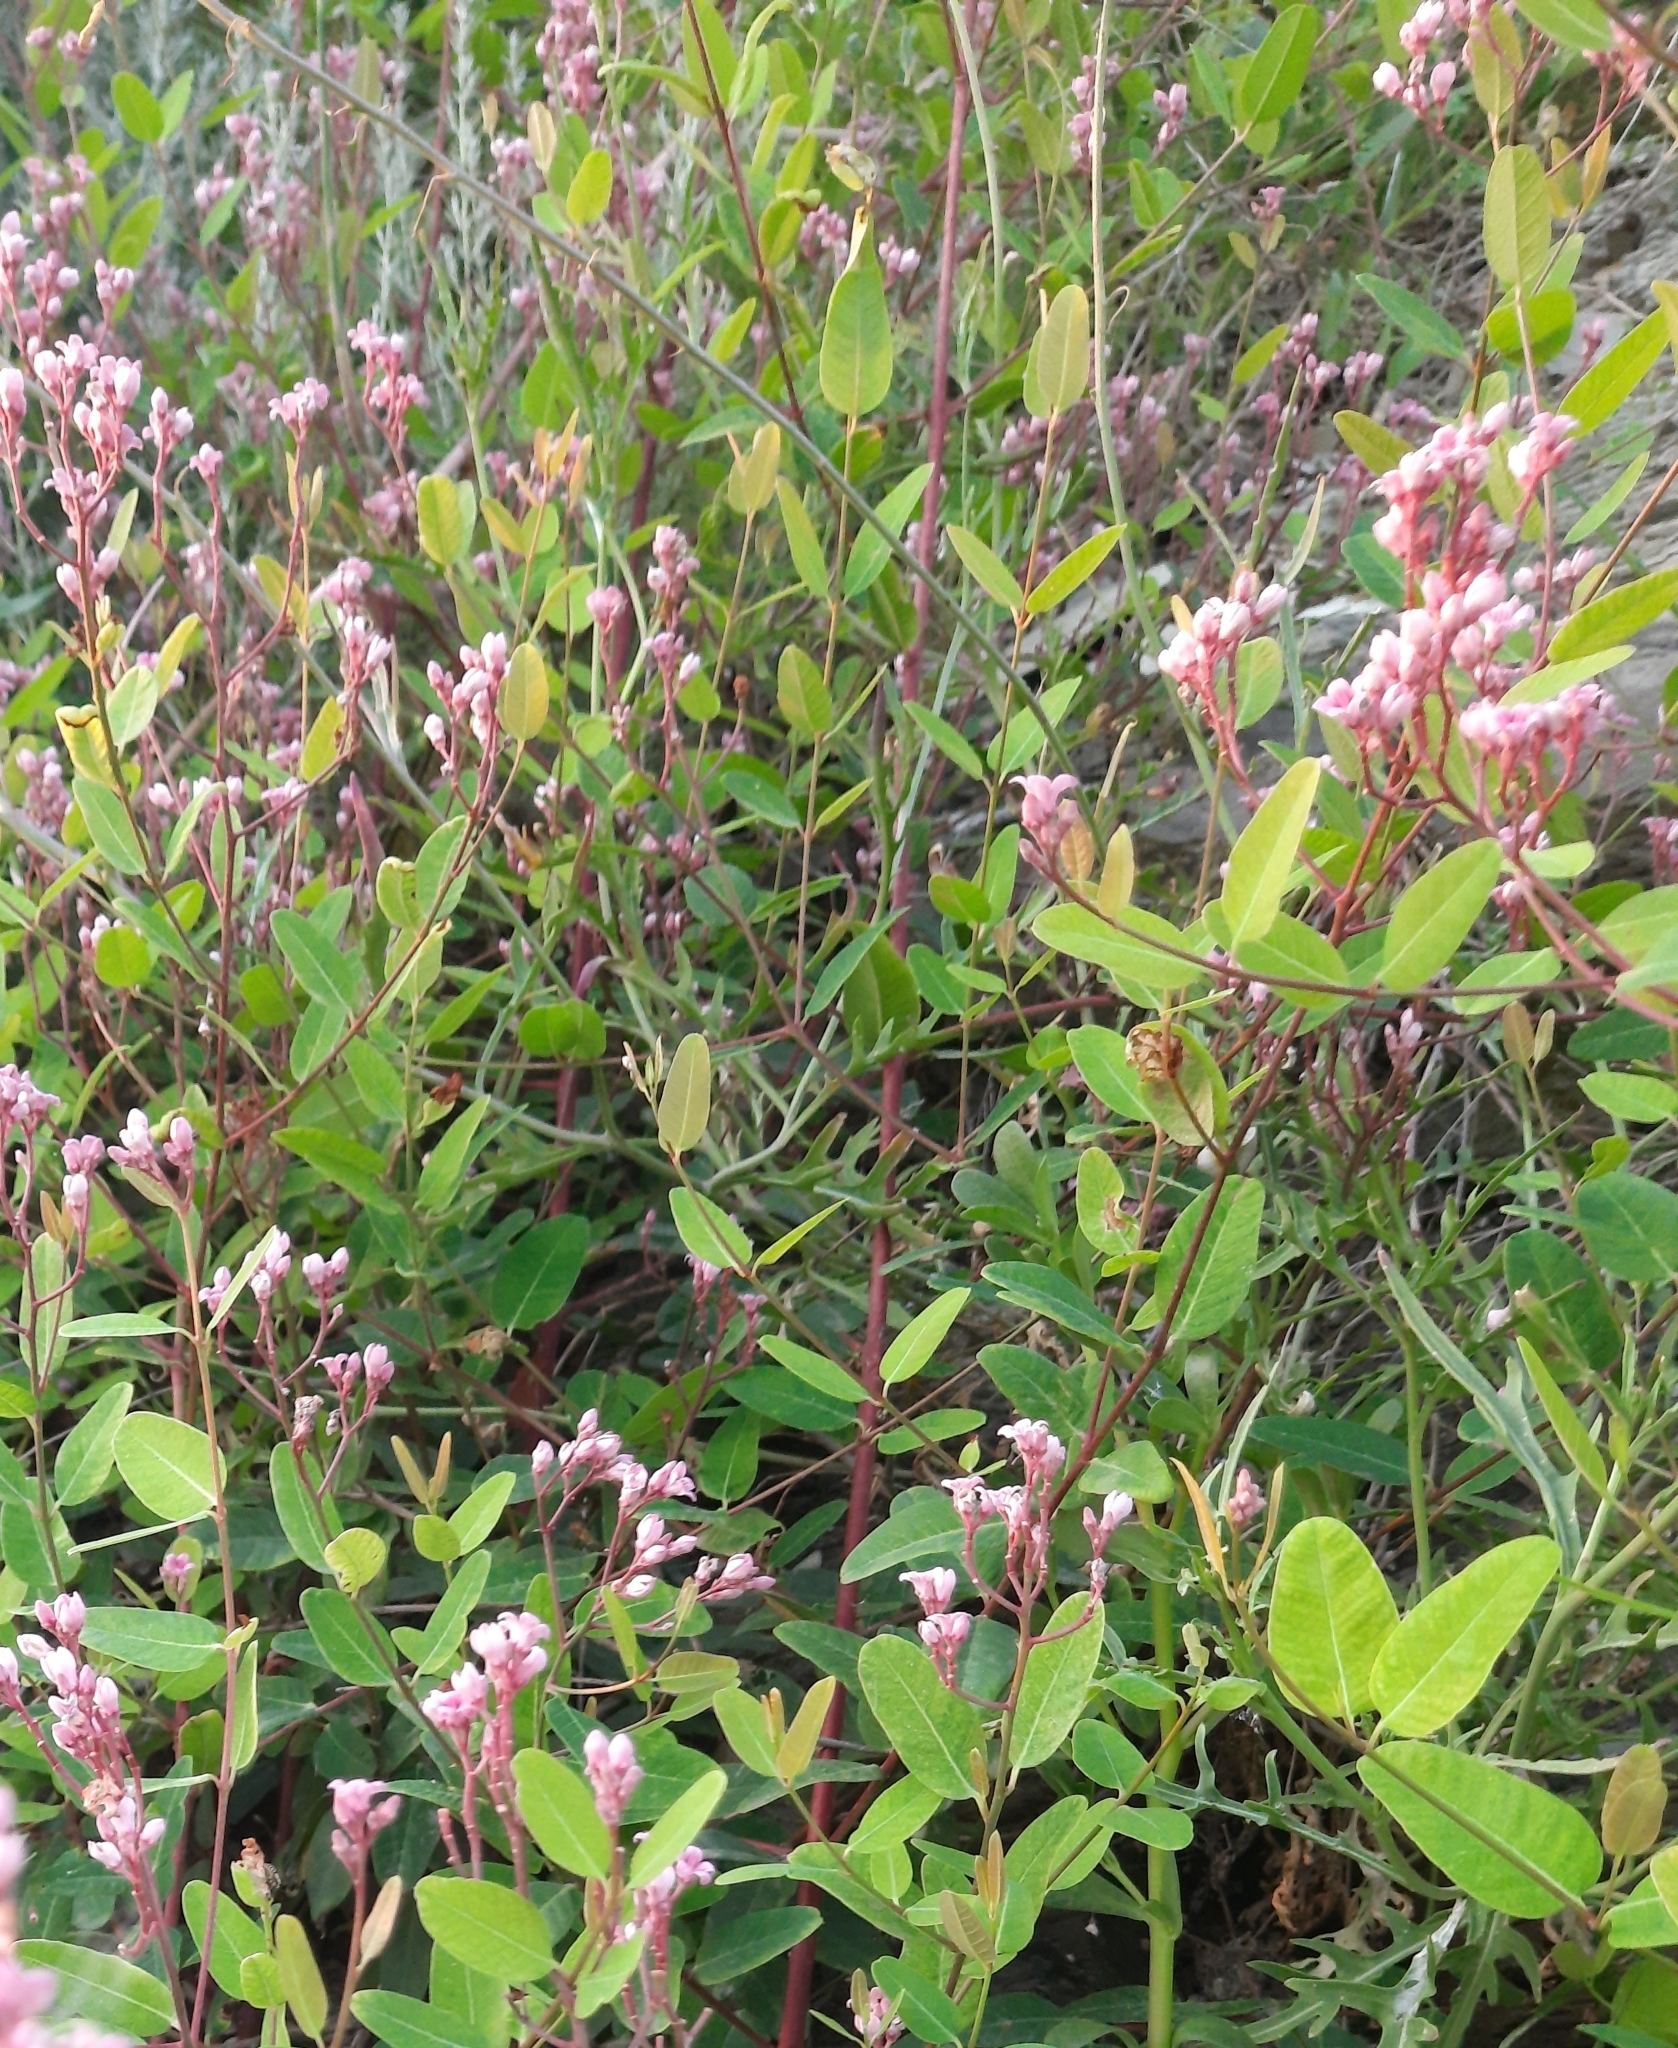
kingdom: Plantae
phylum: Tracheophyta
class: Magnoliopsida
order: Gentianales
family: Apocynaceae
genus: Poacynum
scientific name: Poacynum venetum
